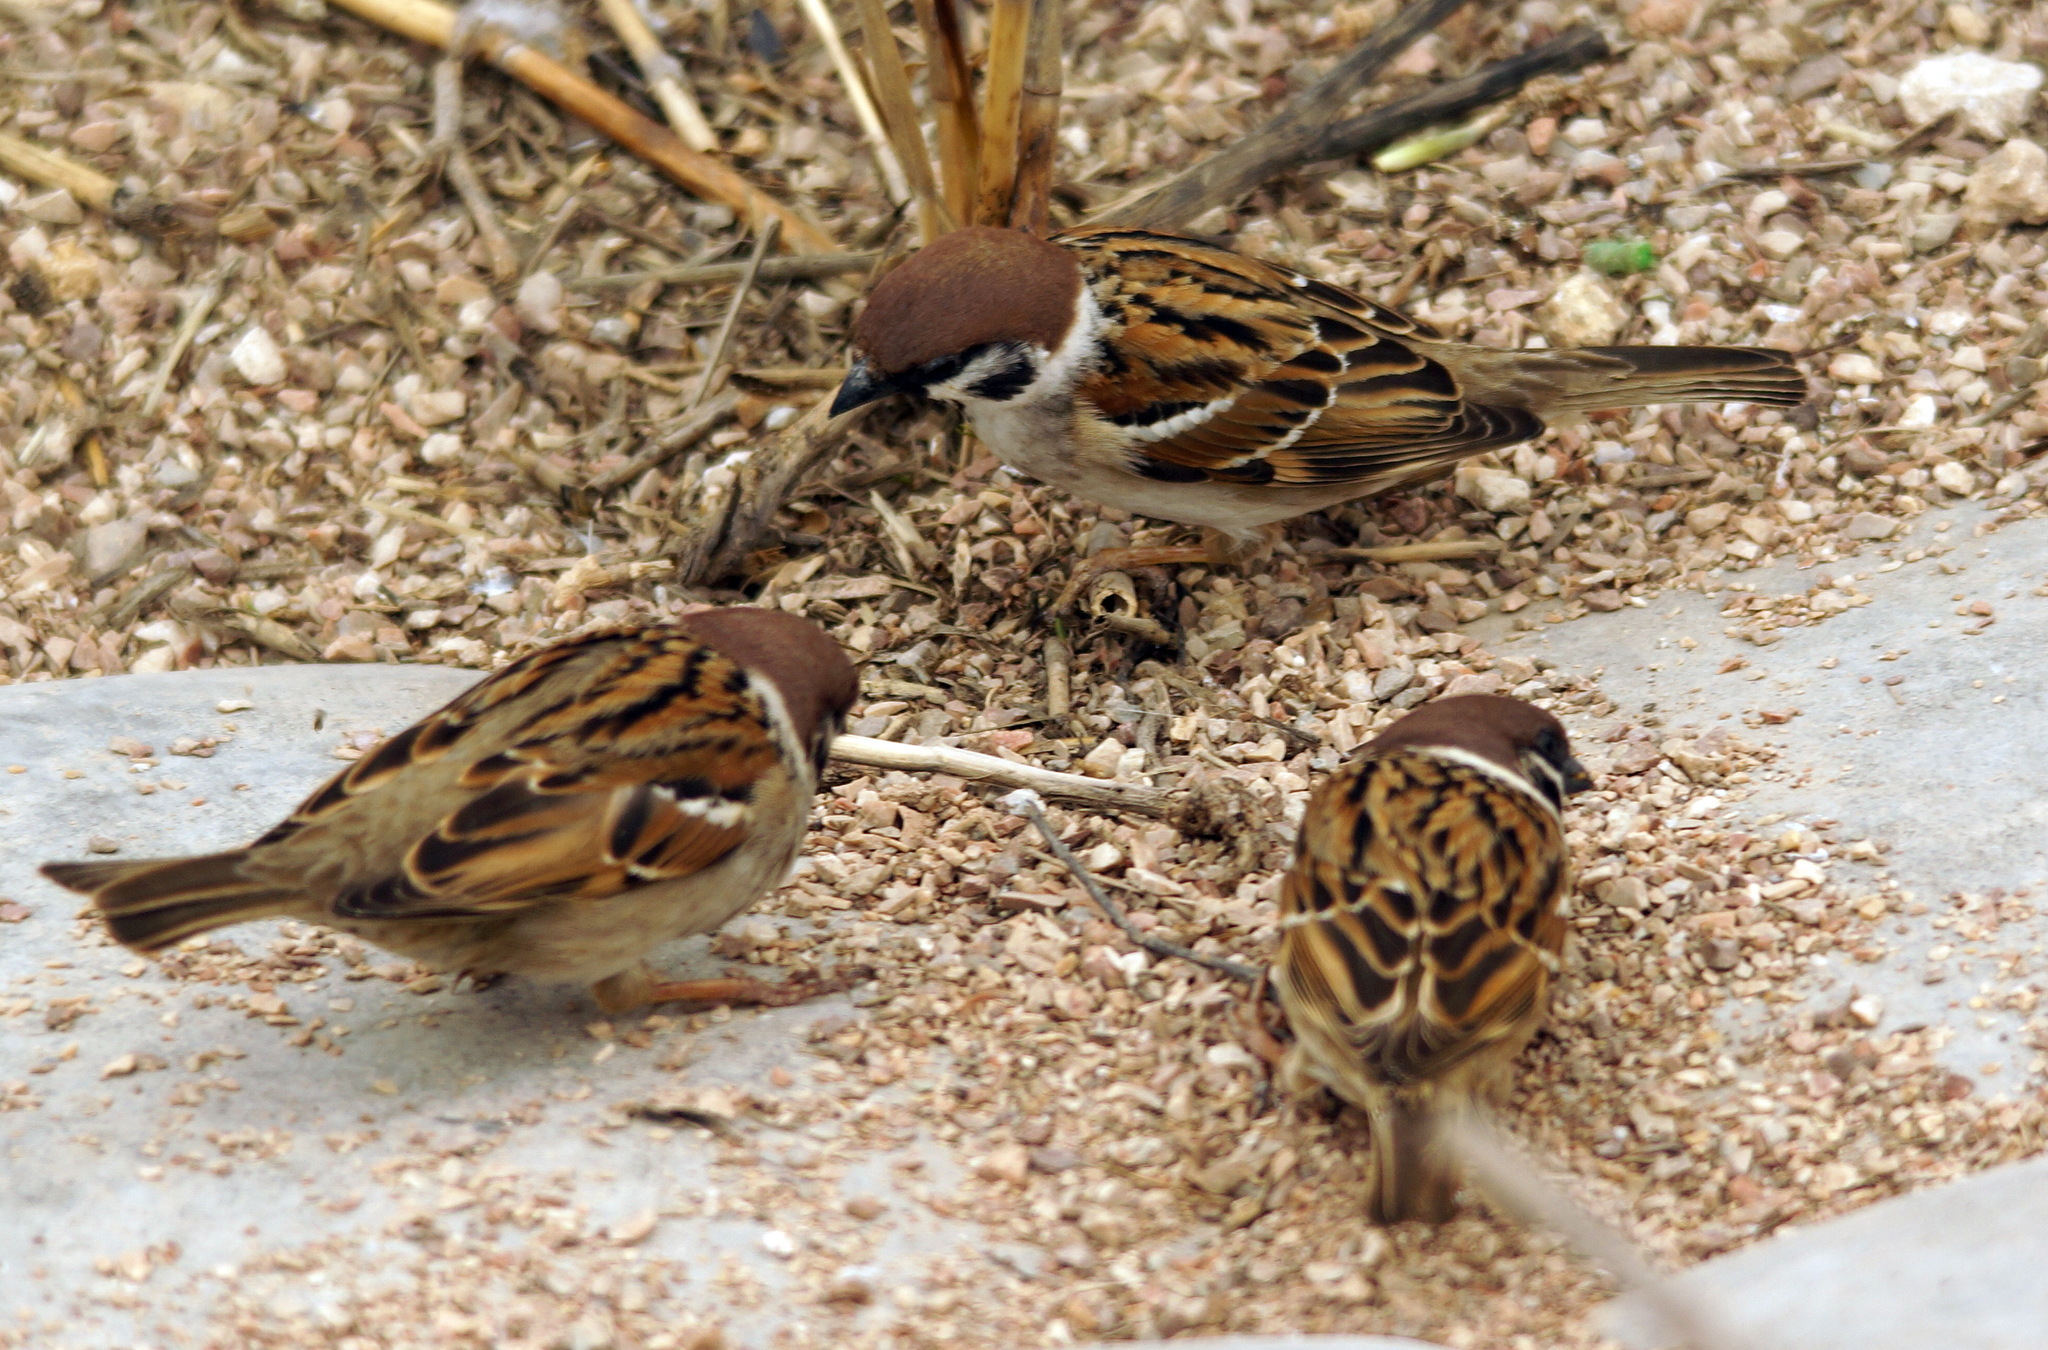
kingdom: Animalia
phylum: Chordata
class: Aves
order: Passeriformes
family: Passeridae
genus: Passer
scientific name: Passer montanus
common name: Eurasian tree sparrow
